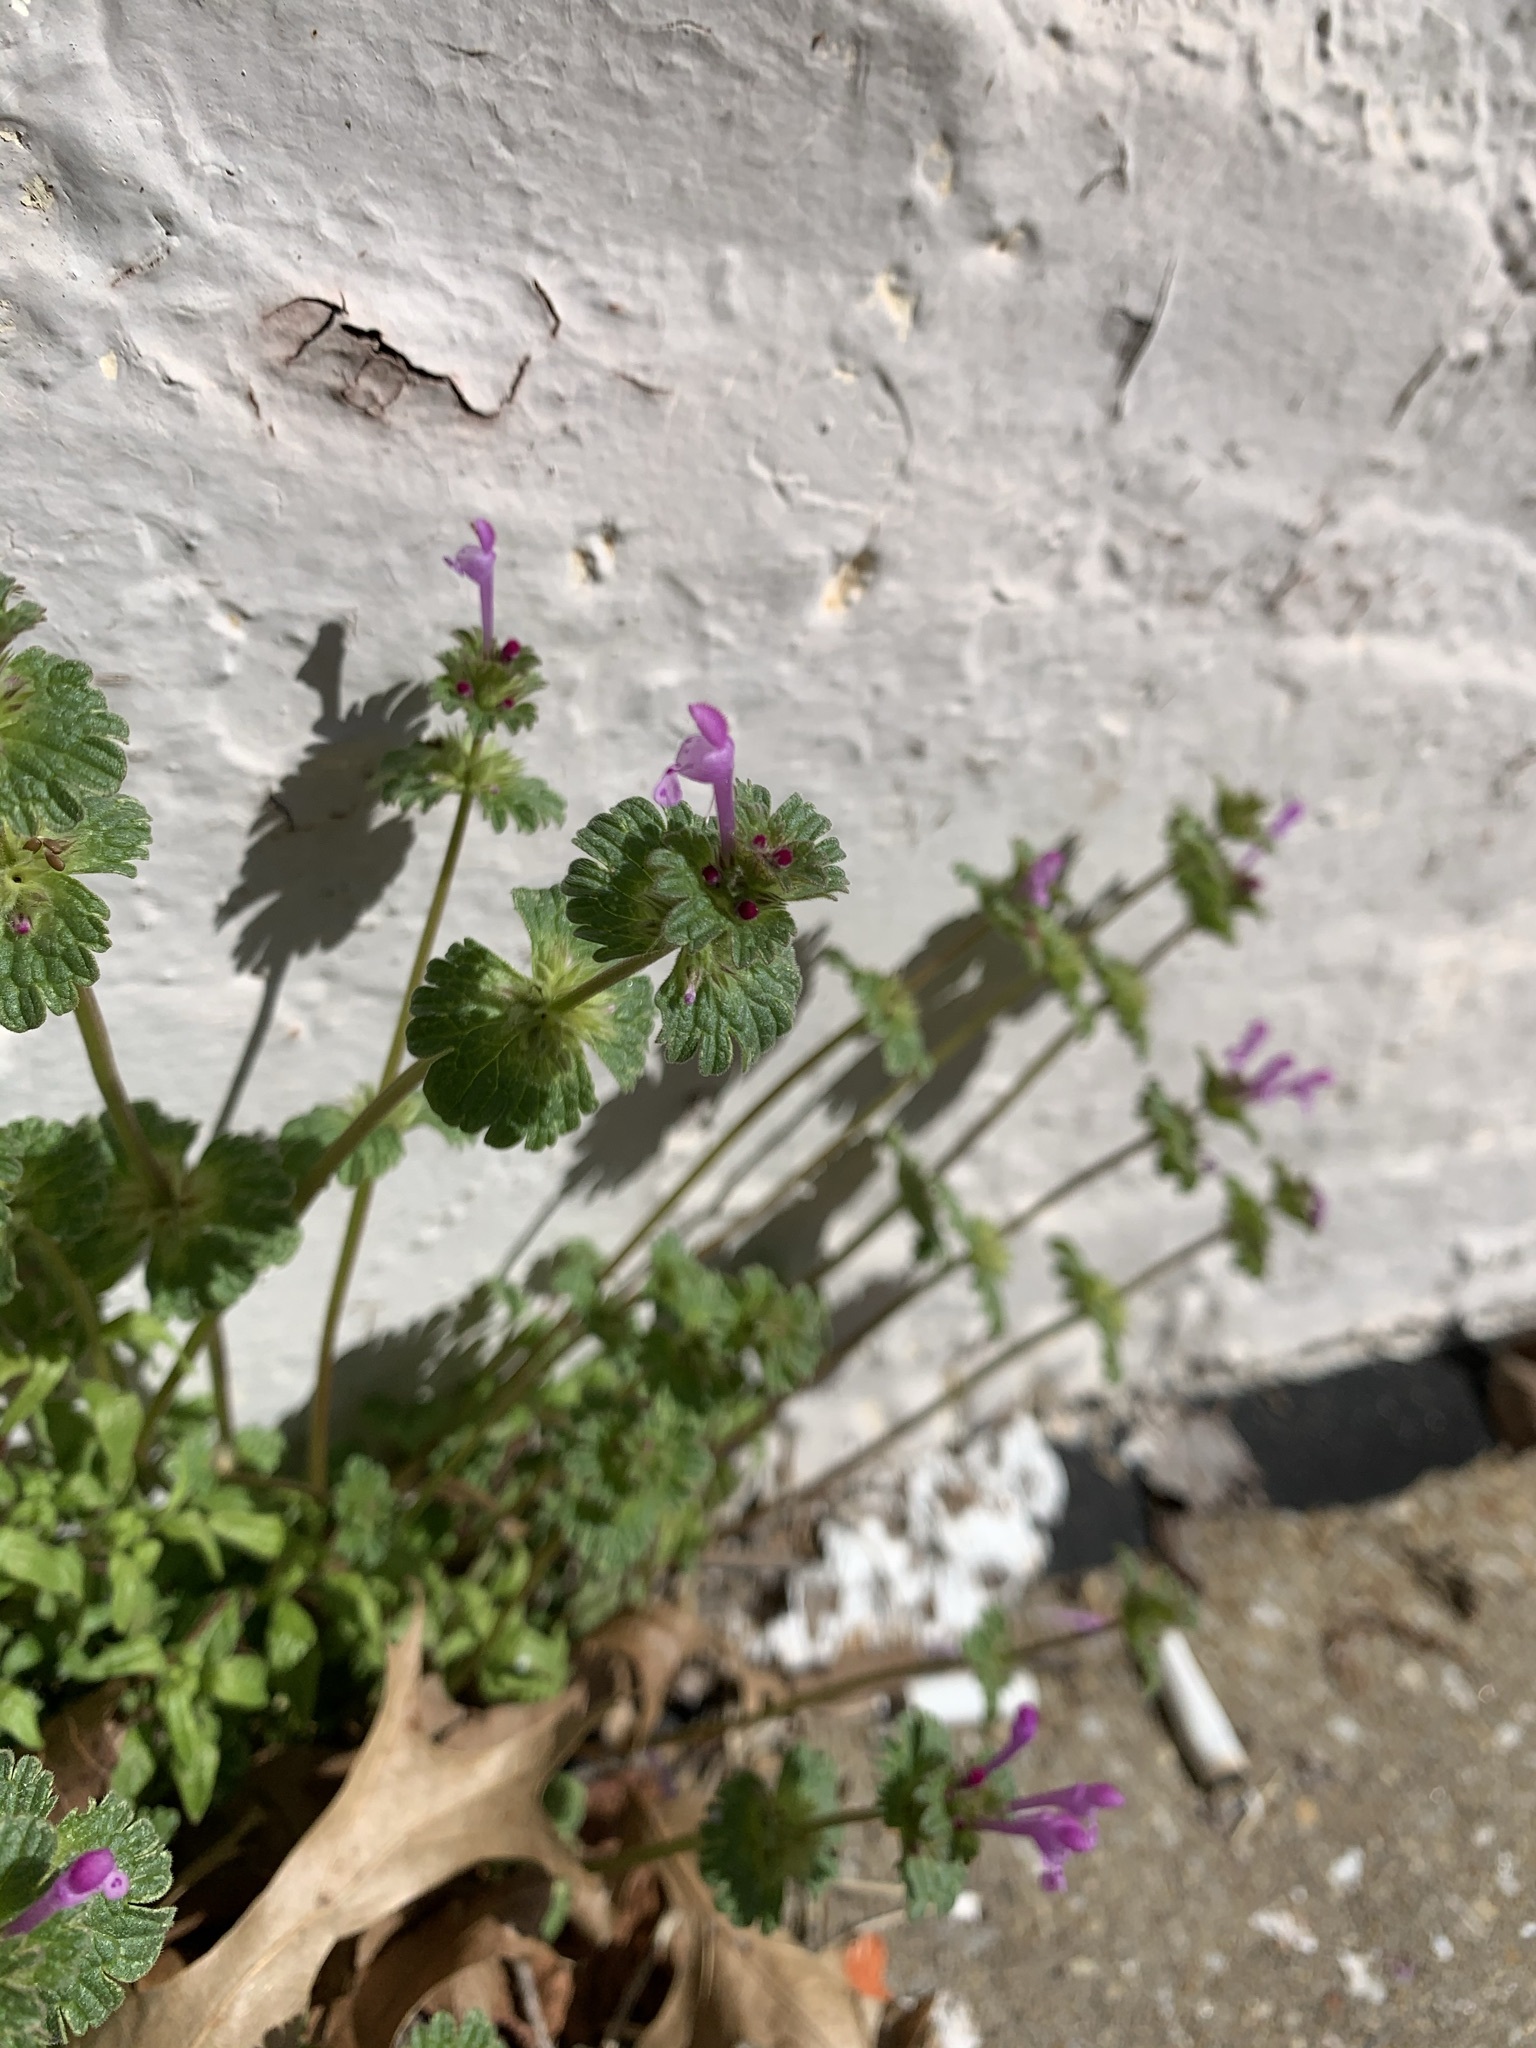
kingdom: Plantae
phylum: Tracheophyta
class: Magnoliopsida
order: Lamiales
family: Lamiaceae
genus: Lamium
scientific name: Lamium amplexicaule
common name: Henbit dead-nettle
